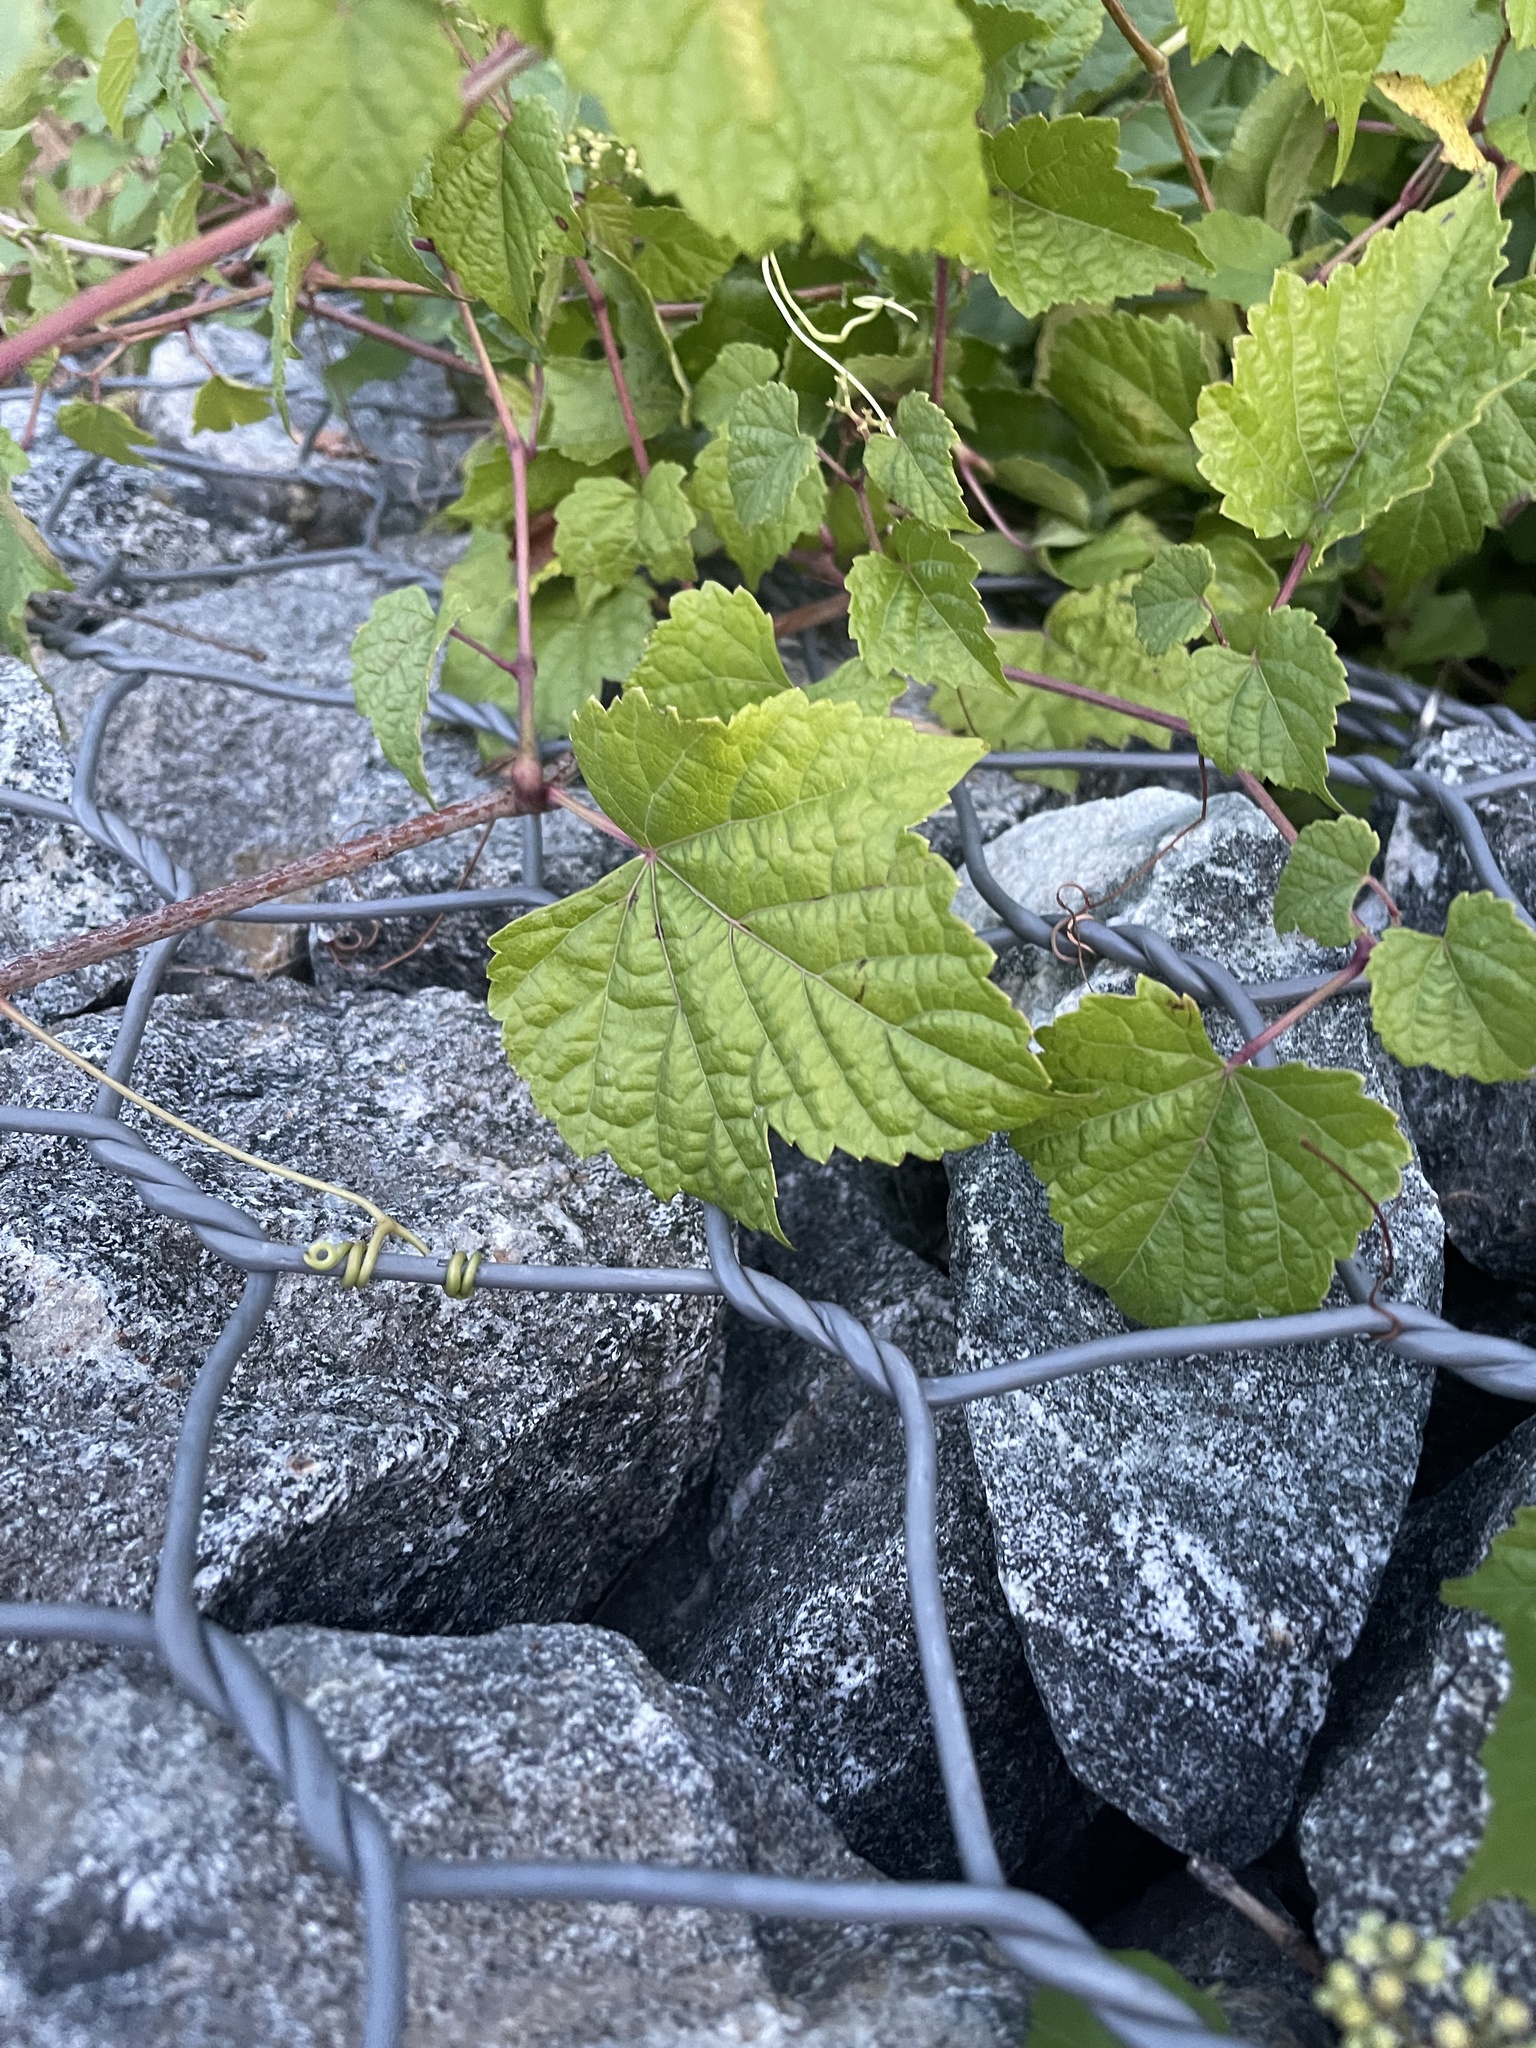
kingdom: Plantae
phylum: Tracheophyta
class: Magnoliopsida
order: Vitales
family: Vitaceae
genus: Ampelopsis
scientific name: Ampelopsis glandulosa
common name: Amur peppervine
